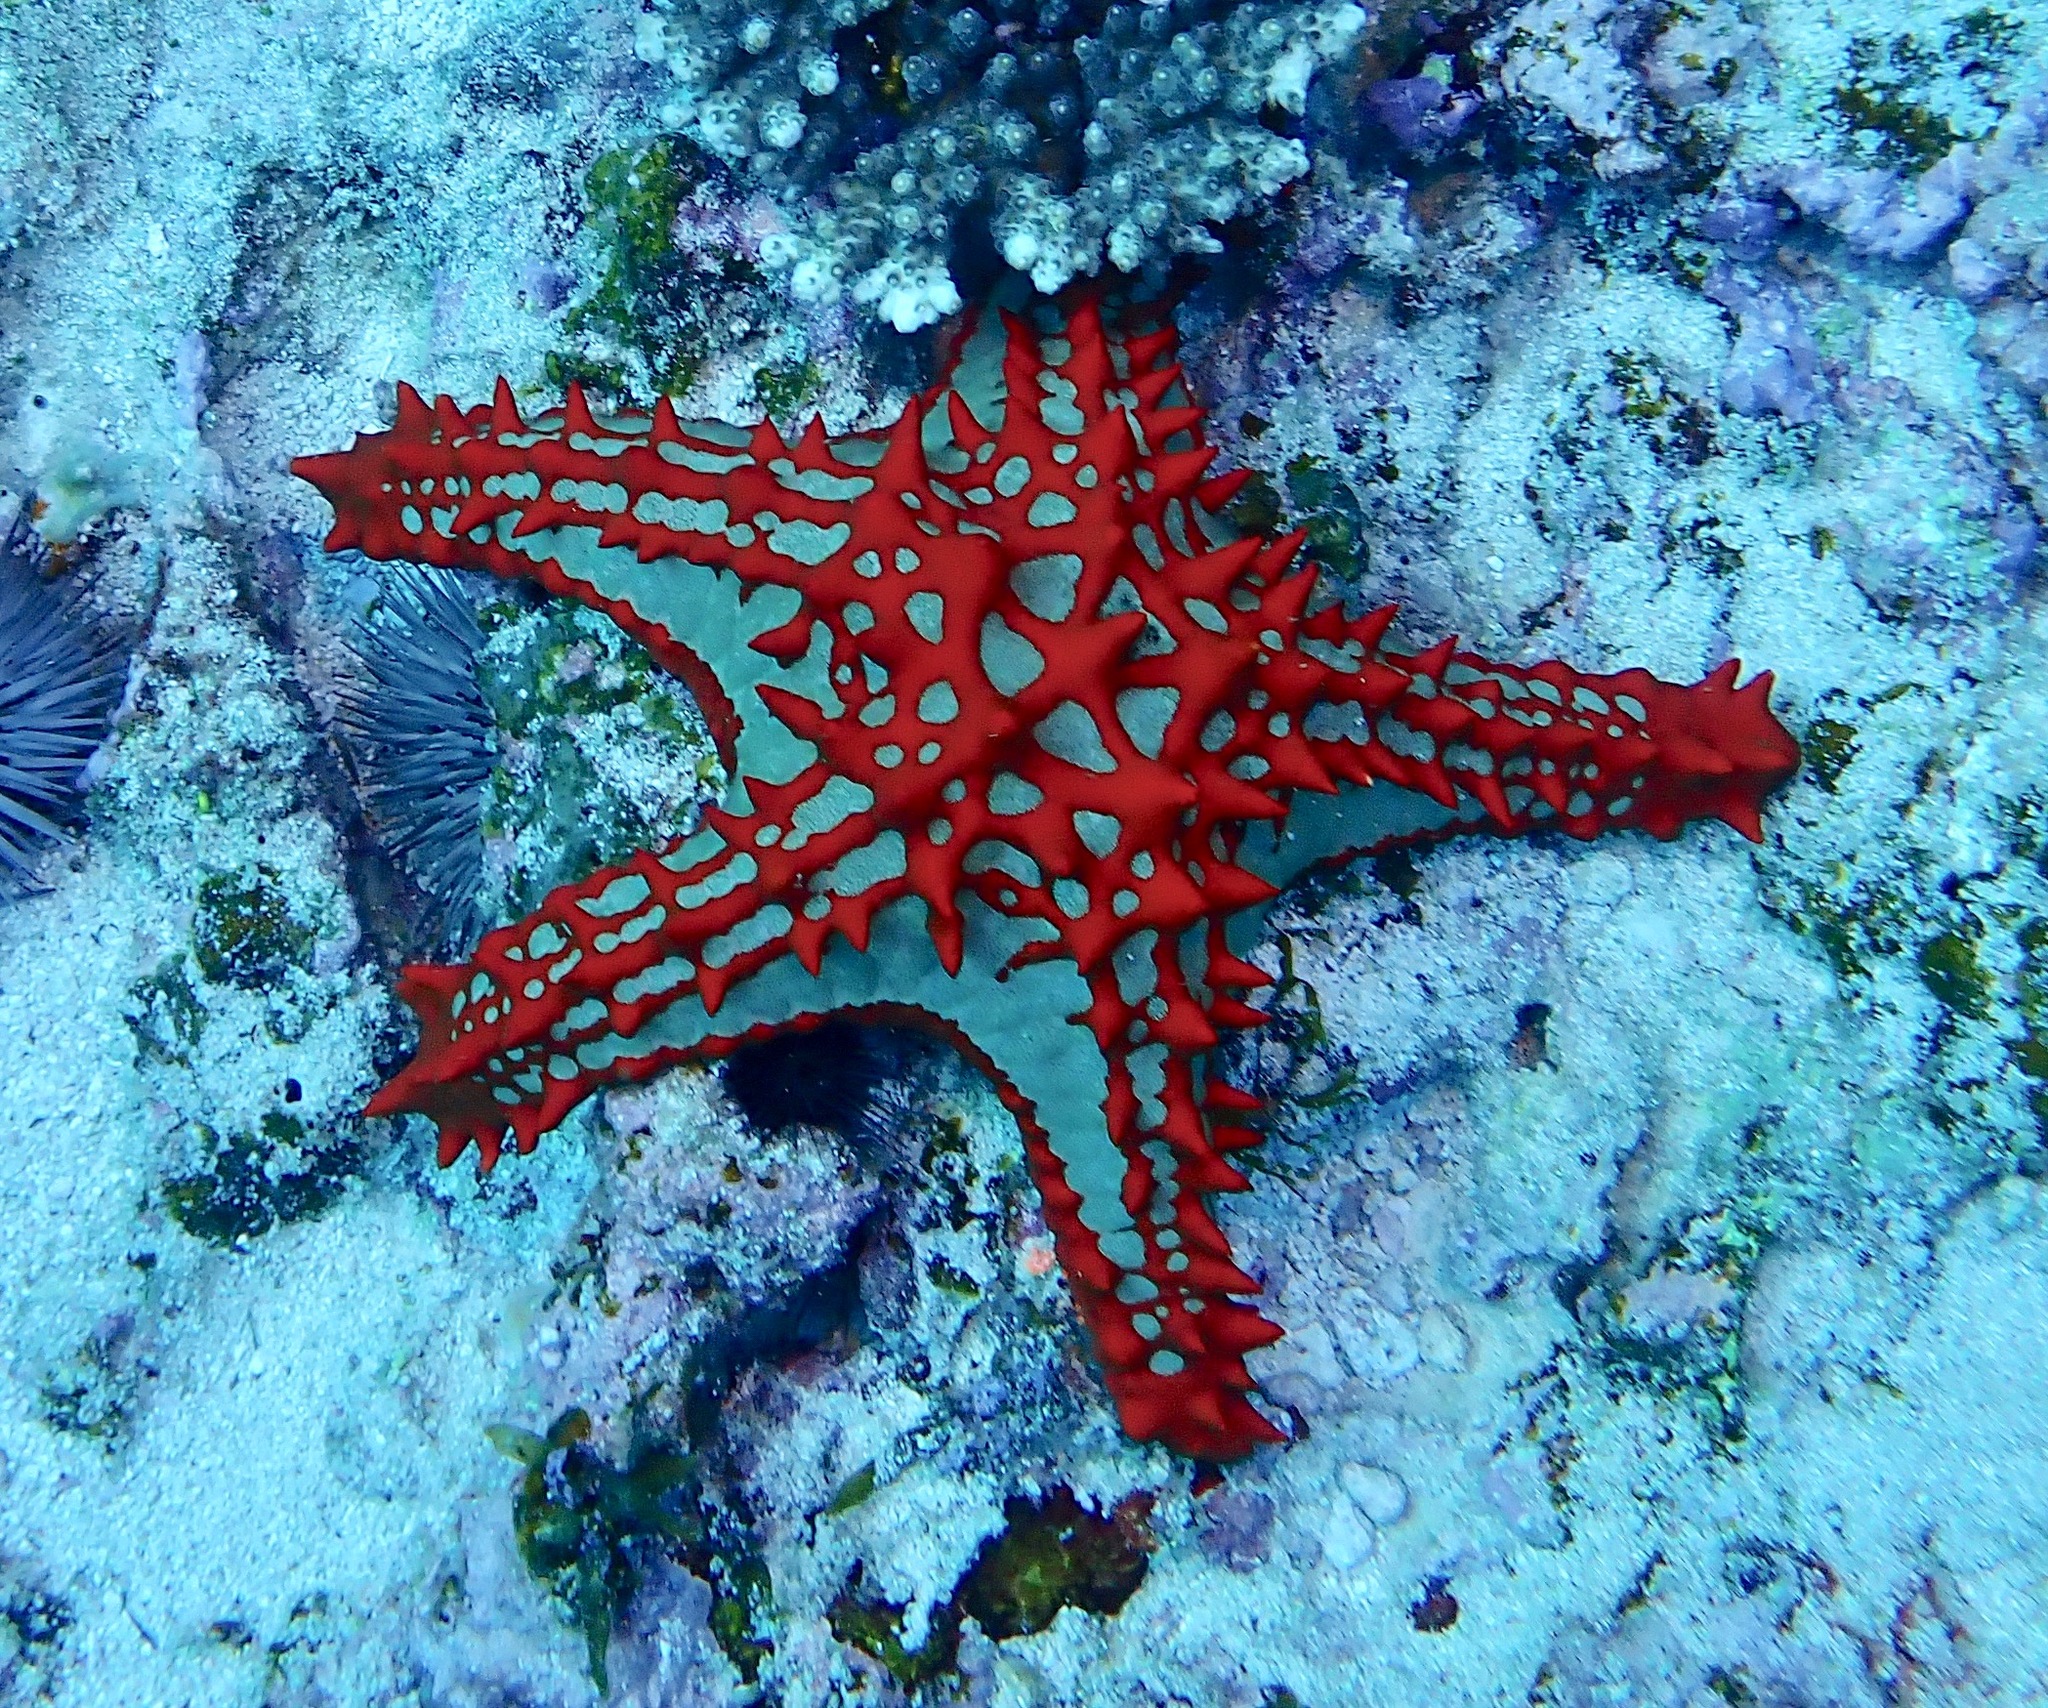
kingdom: Animalia
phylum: Echinodermata
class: Asteroidea
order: Valvatida
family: Oreasteridae
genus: Protoreaster
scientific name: Protoreaster lincki
